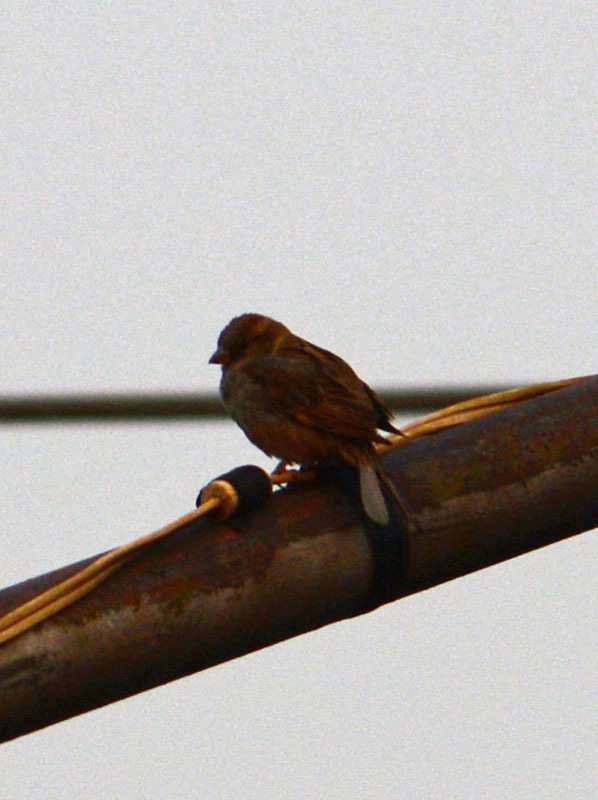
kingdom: Animalia
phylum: Chordata
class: Aves
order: Passeriformes
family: Passeridae
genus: Passer
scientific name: Passer domesticus
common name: House sparrow
